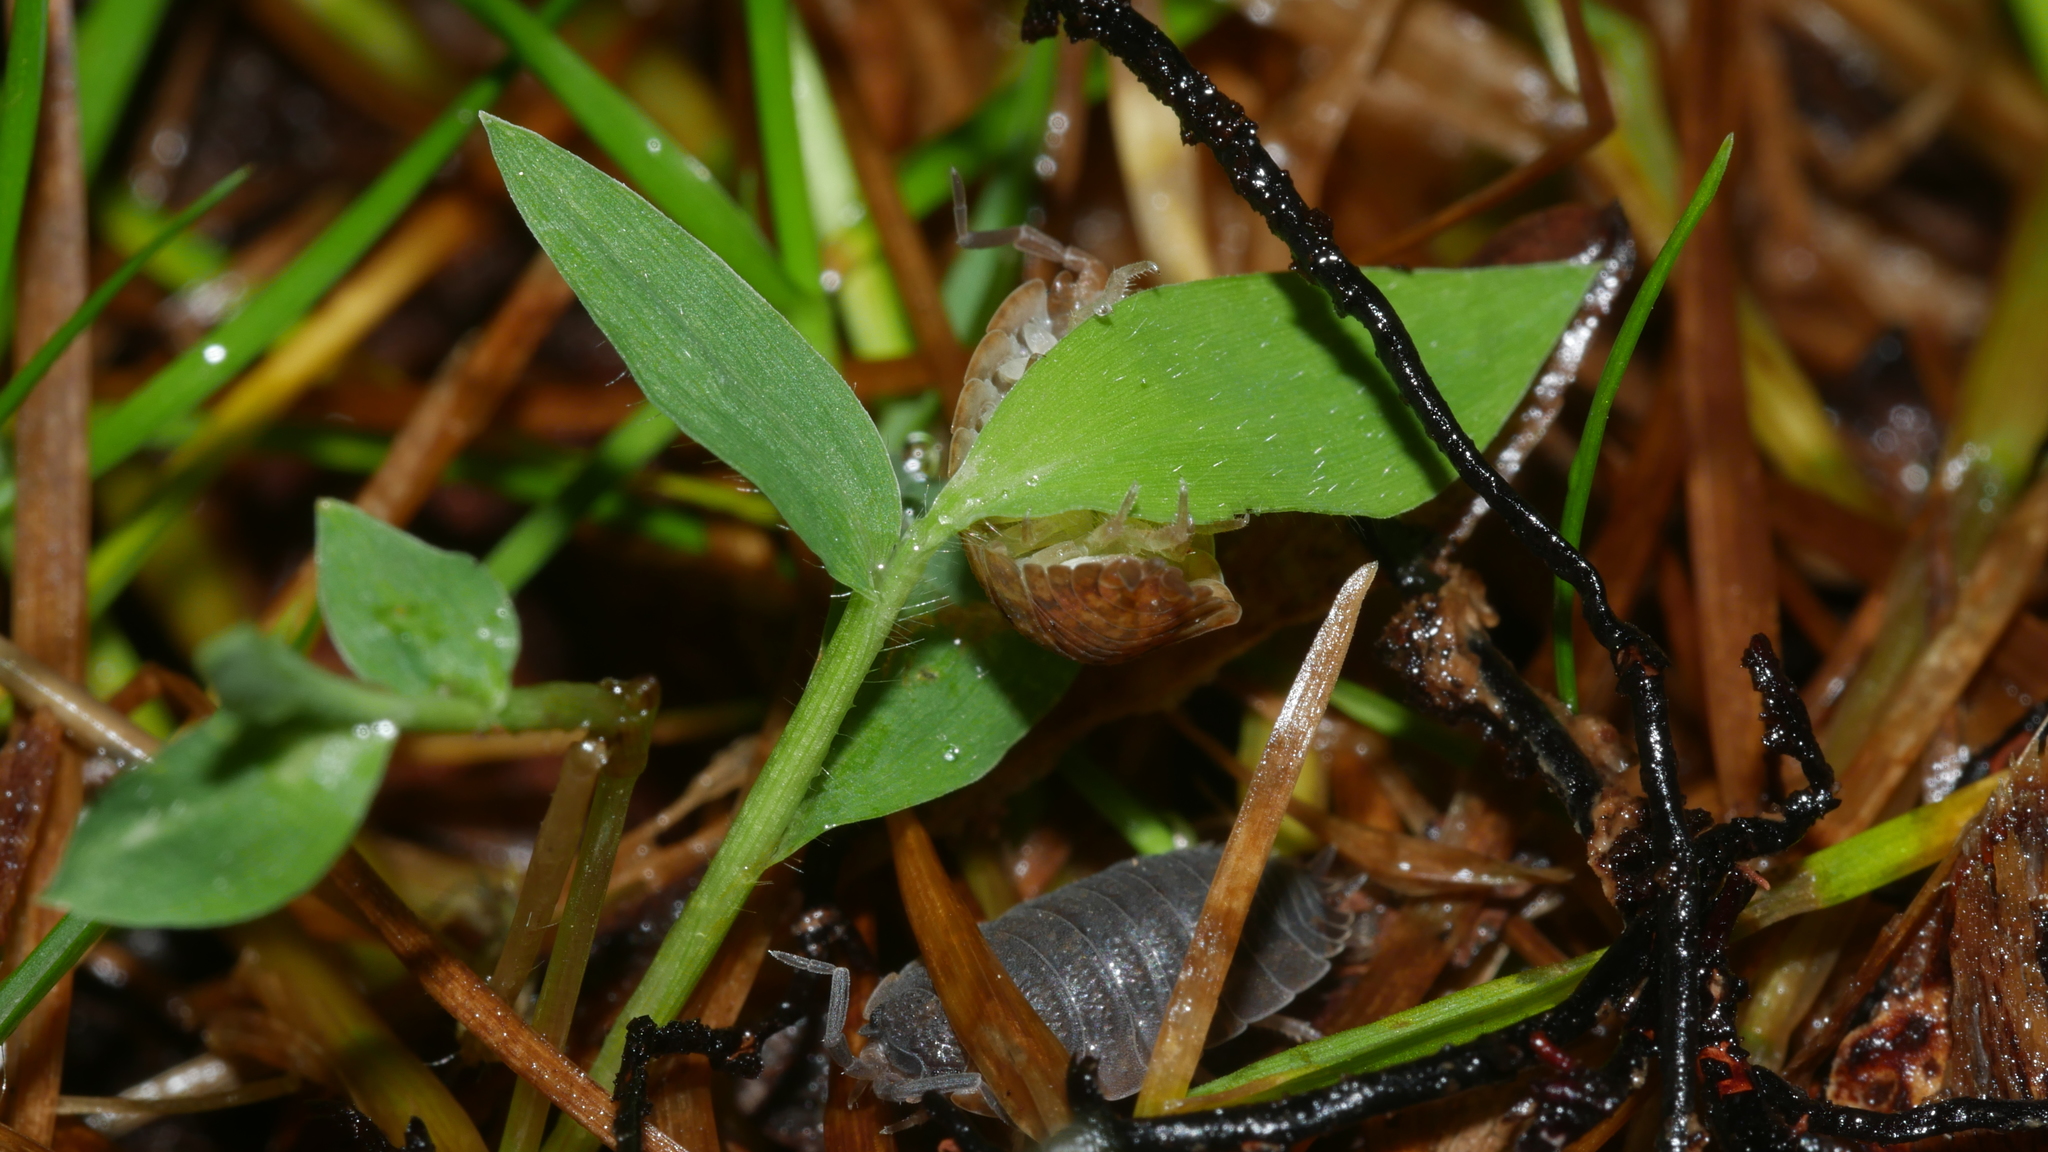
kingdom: Animalia
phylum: Arthropoda
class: Malacostraca
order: Isopoda
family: Porcellionidae
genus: Porcellio
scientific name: Porcellio scaber
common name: Common rough woodlouse
